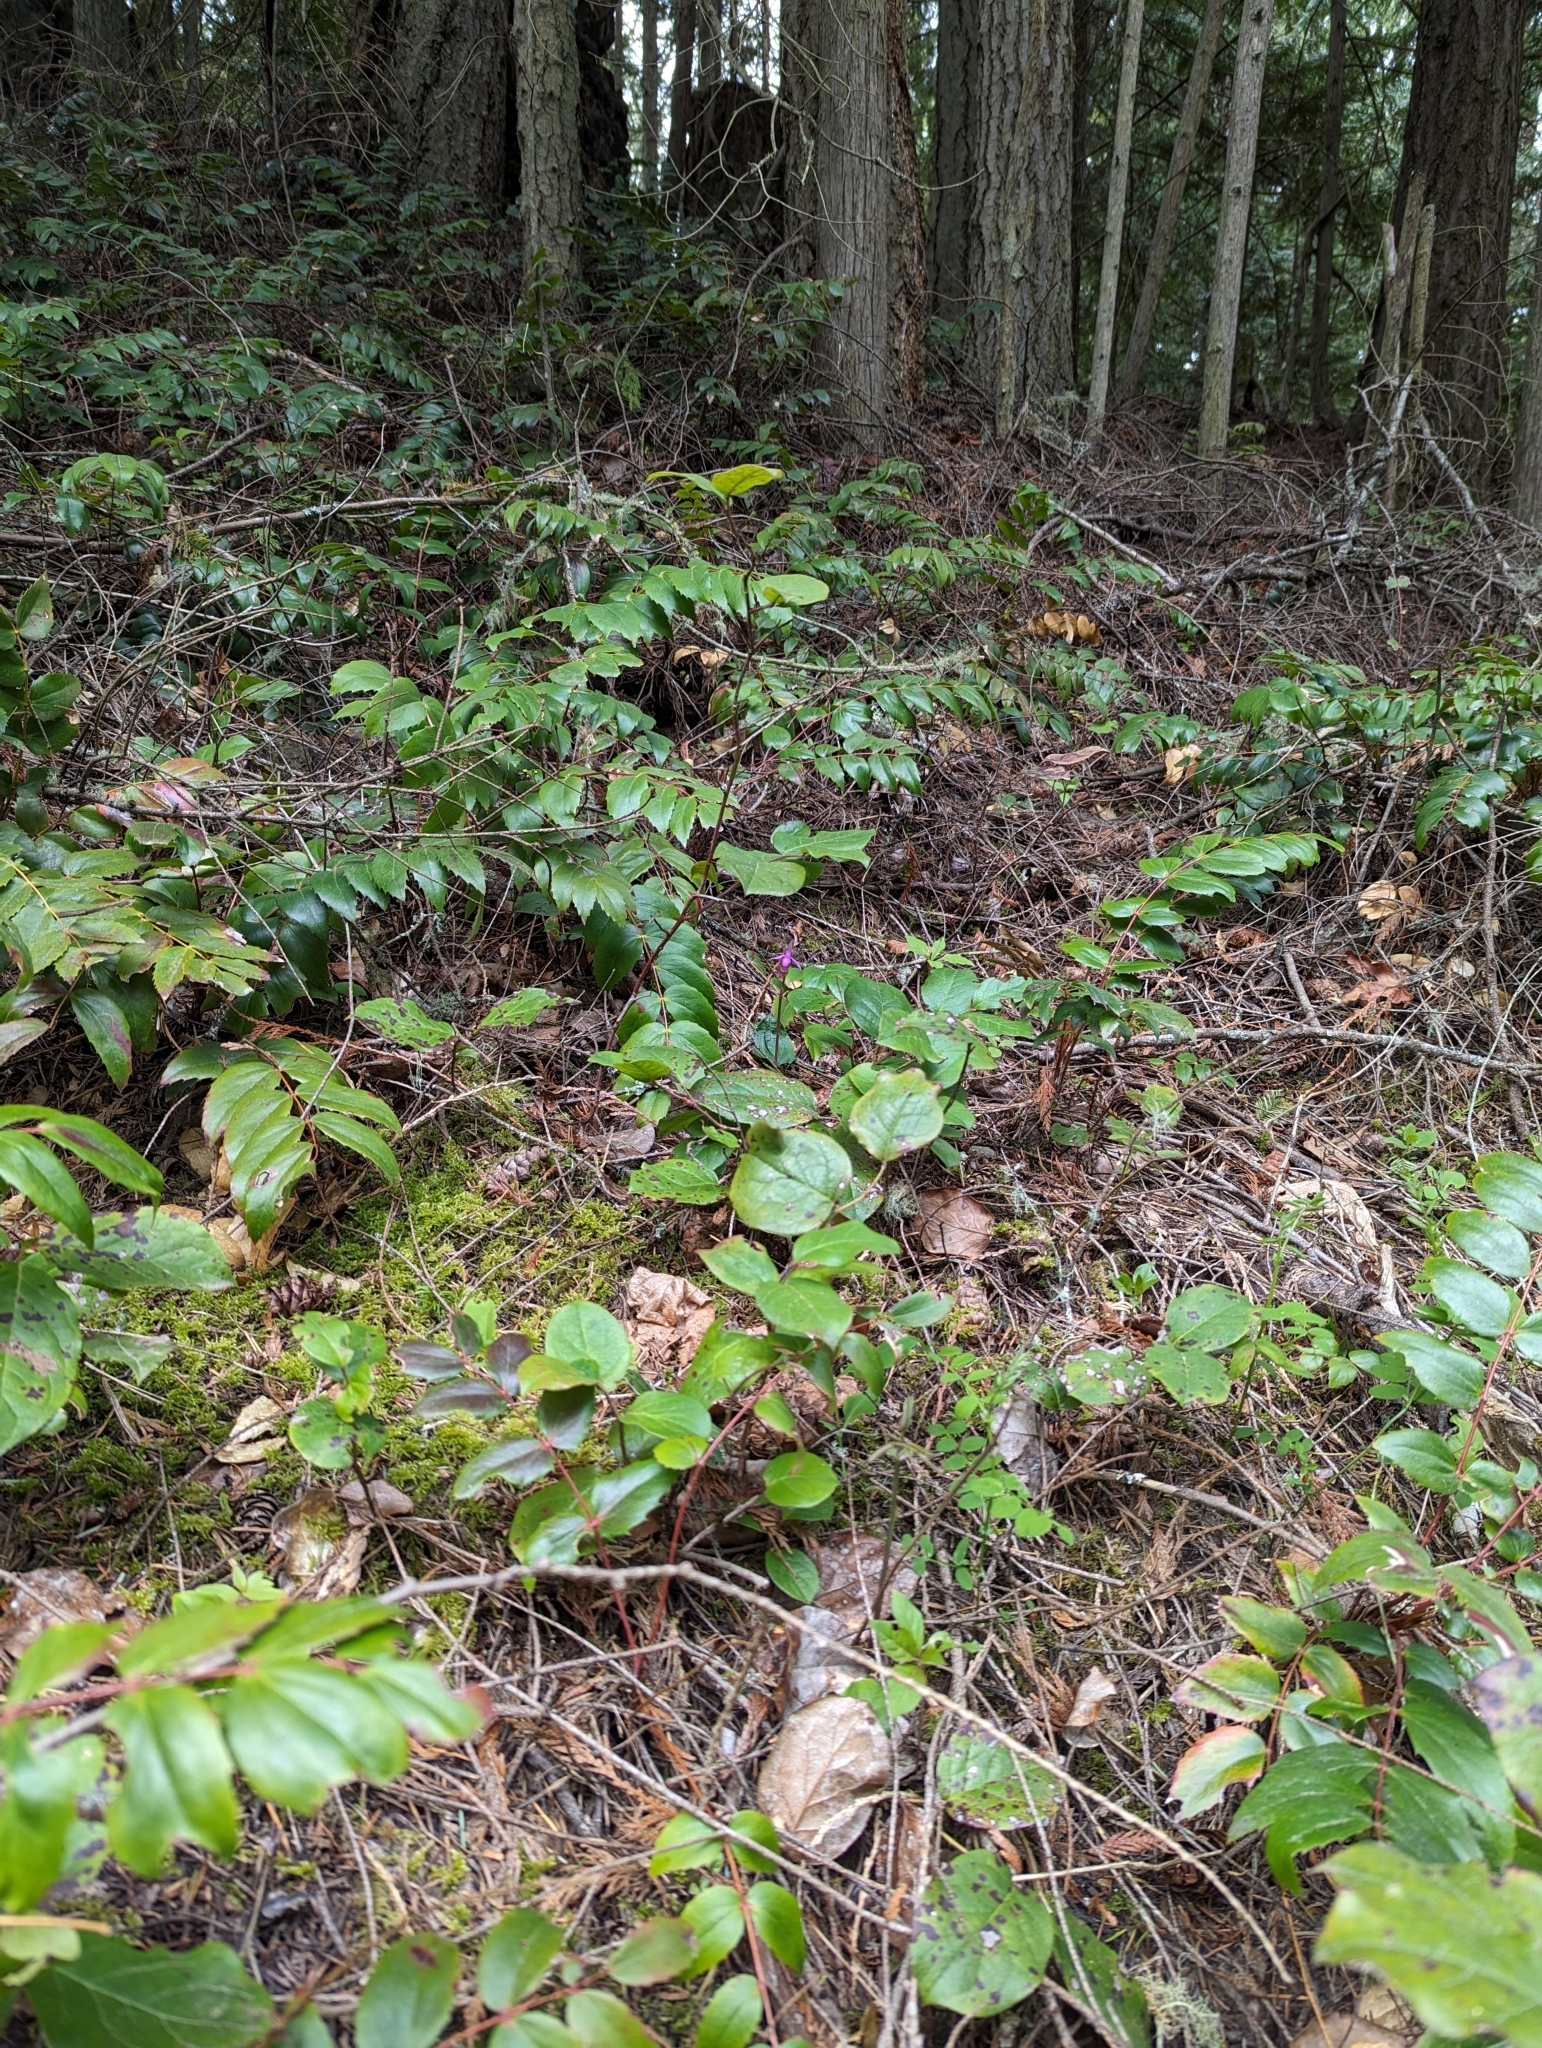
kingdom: Plantae
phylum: Tracheophyta
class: Liliopsida
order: Asparagales
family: Orchidaceae
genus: Calypso
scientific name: Calypso bulbosa
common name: Calypso
